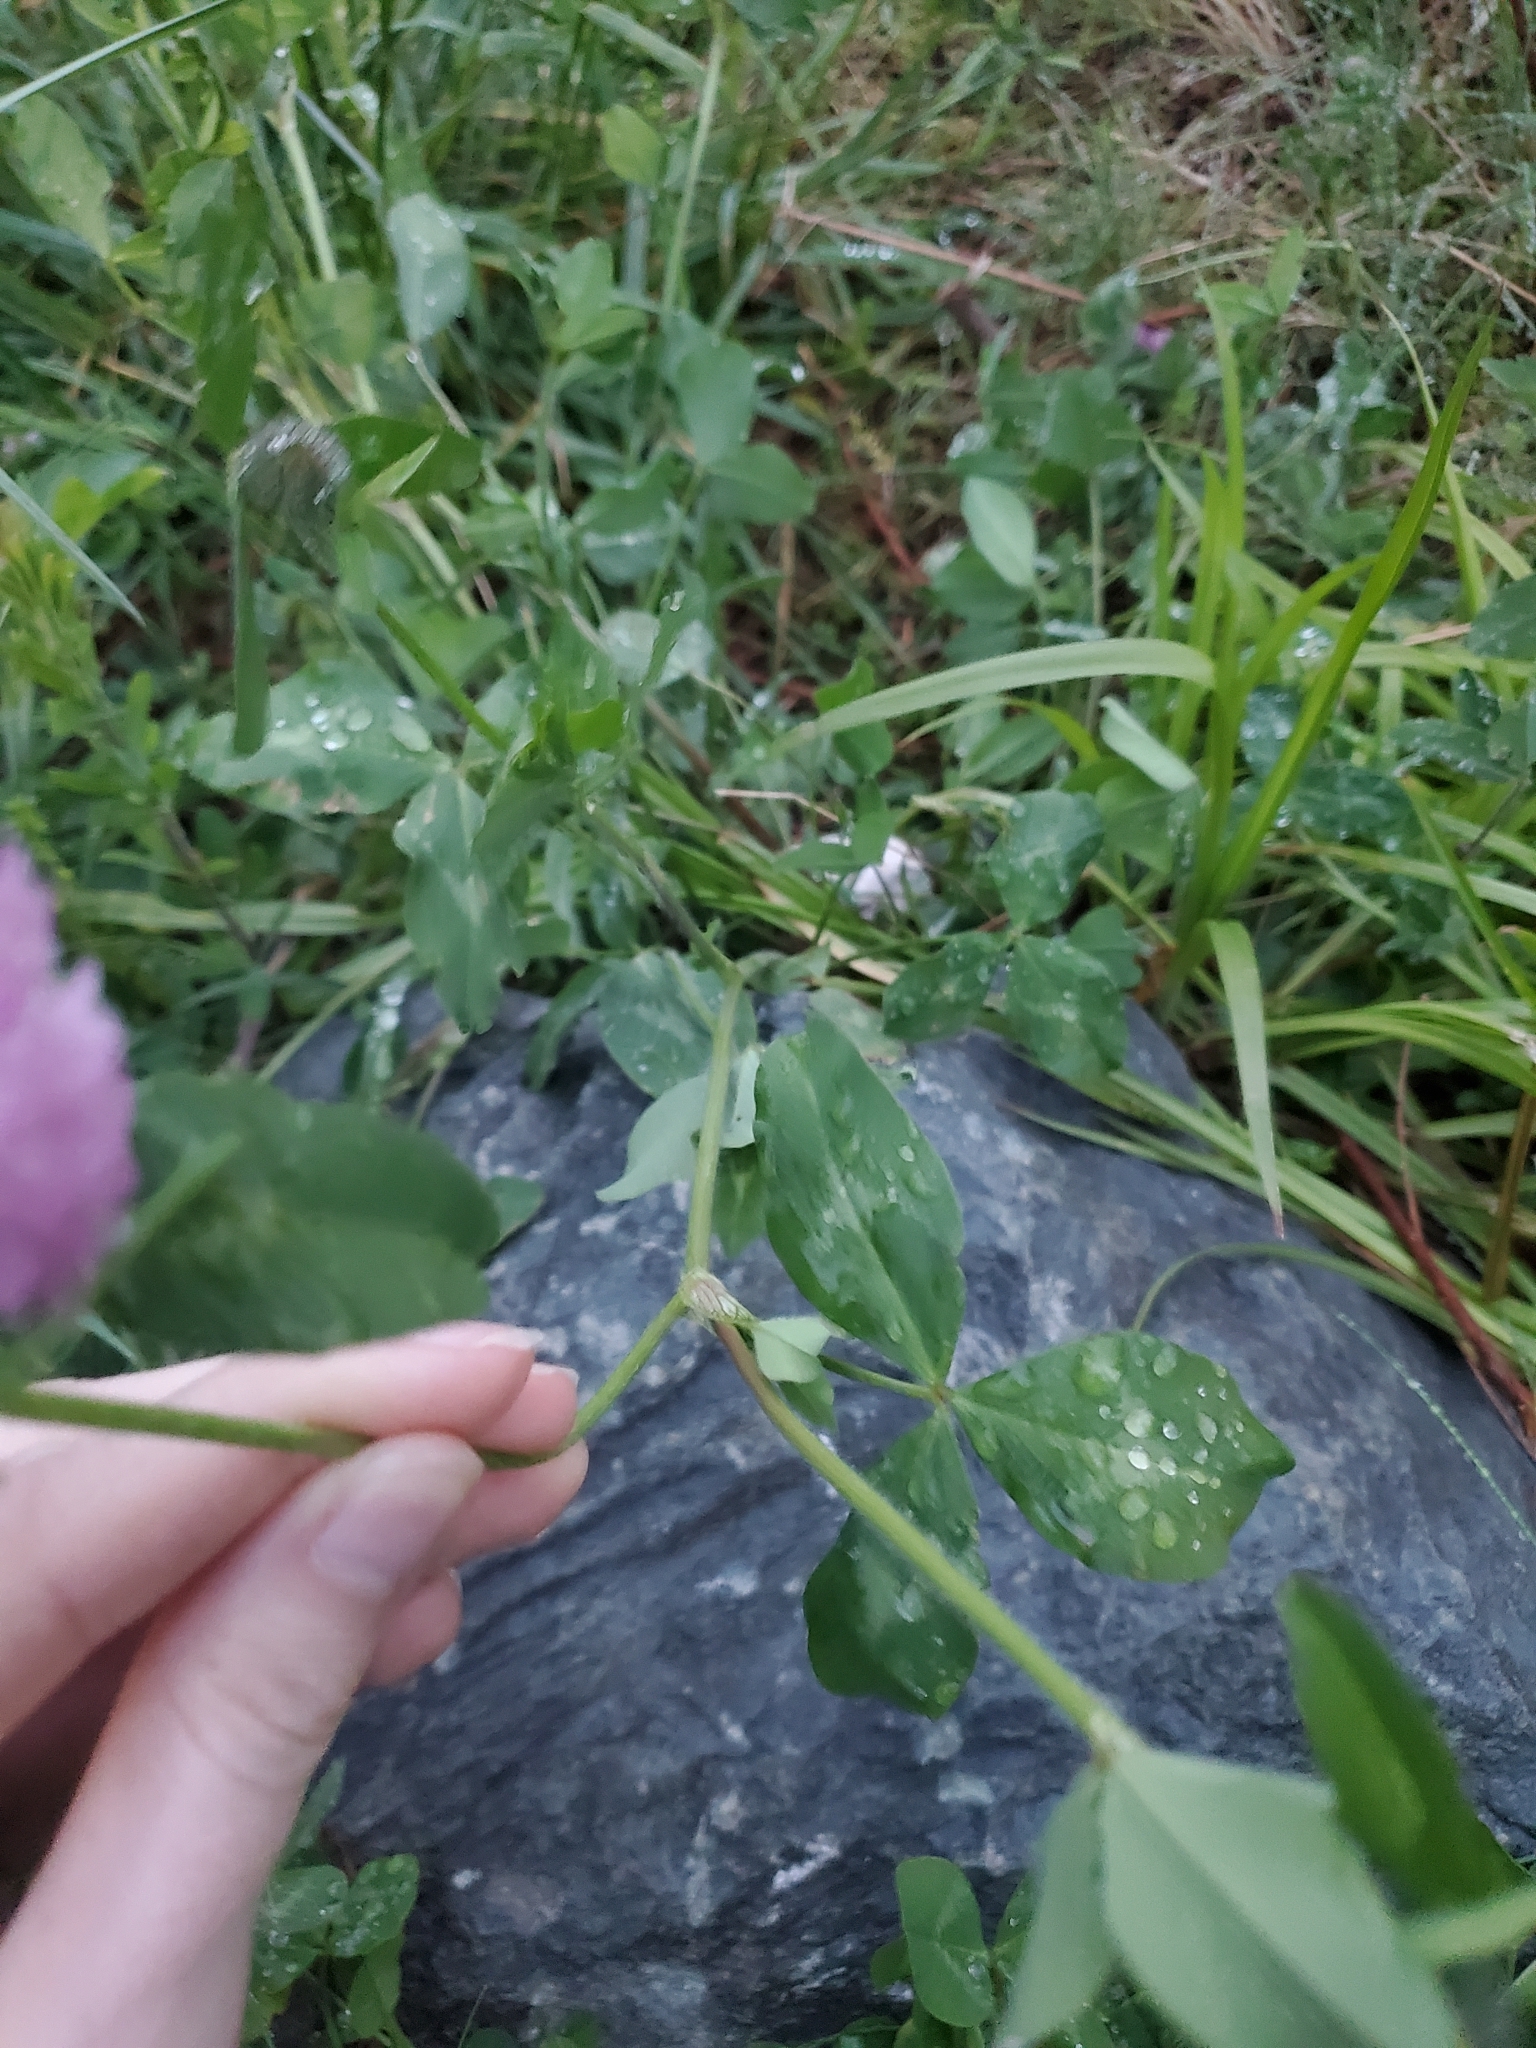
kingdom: Plantae
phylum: Tracheophyta
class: Magnoliopsida
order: Fabales
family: Fabaceae
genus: Trifolium
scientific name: Trifolium pratense
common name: Red clover
